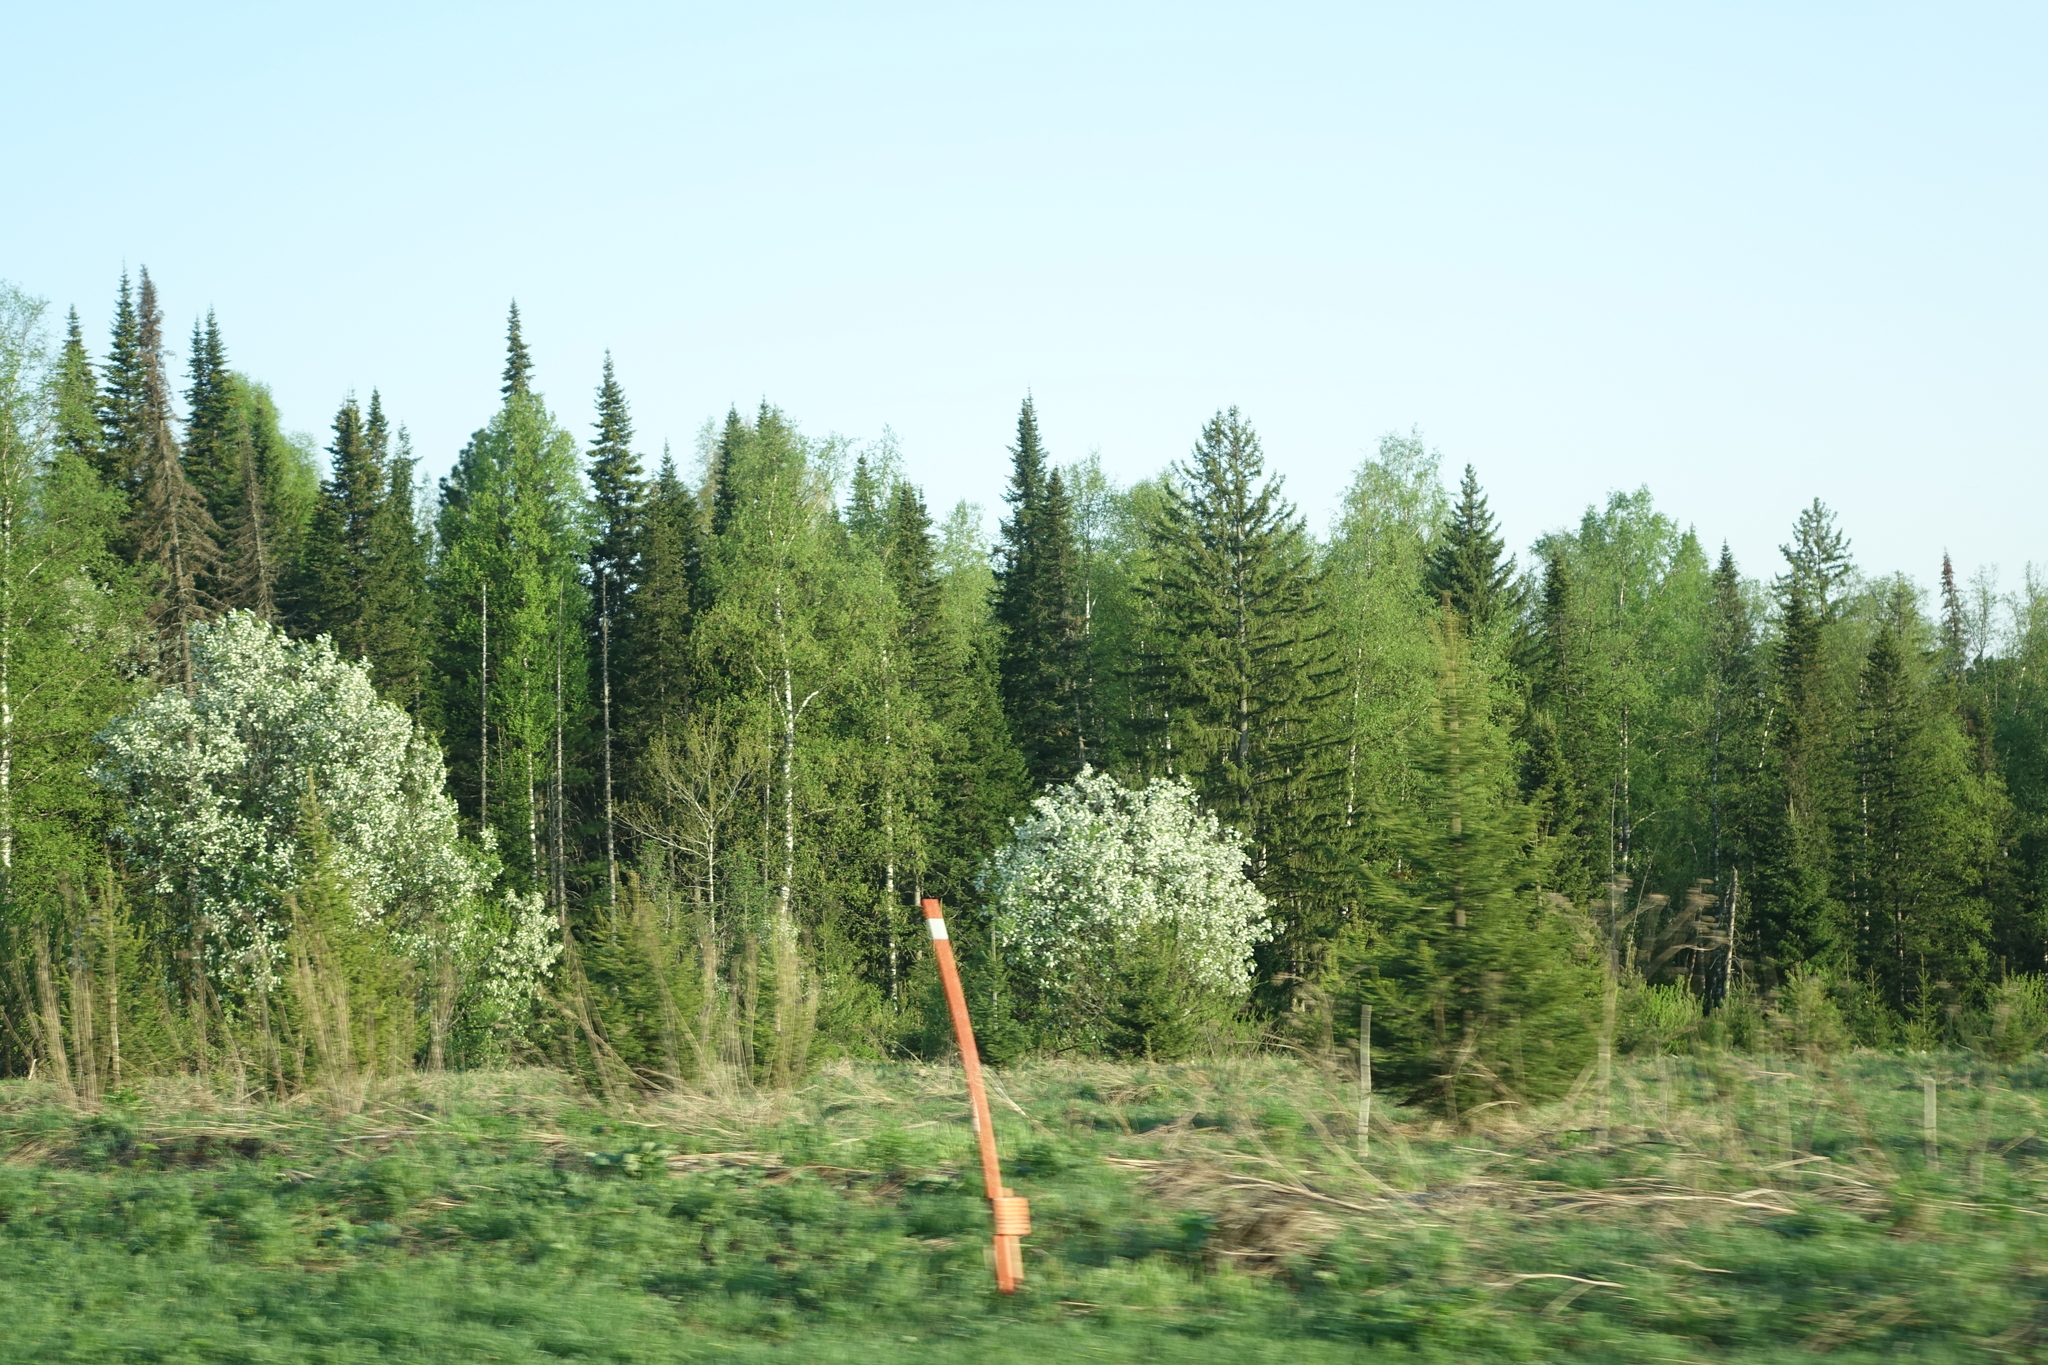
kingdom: Plantae
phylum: Tracheophyta
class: Magnoliopsida
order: Rosales
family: Rosaceae
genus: Prunus
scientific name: Prunus padus
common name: Bird cherry
